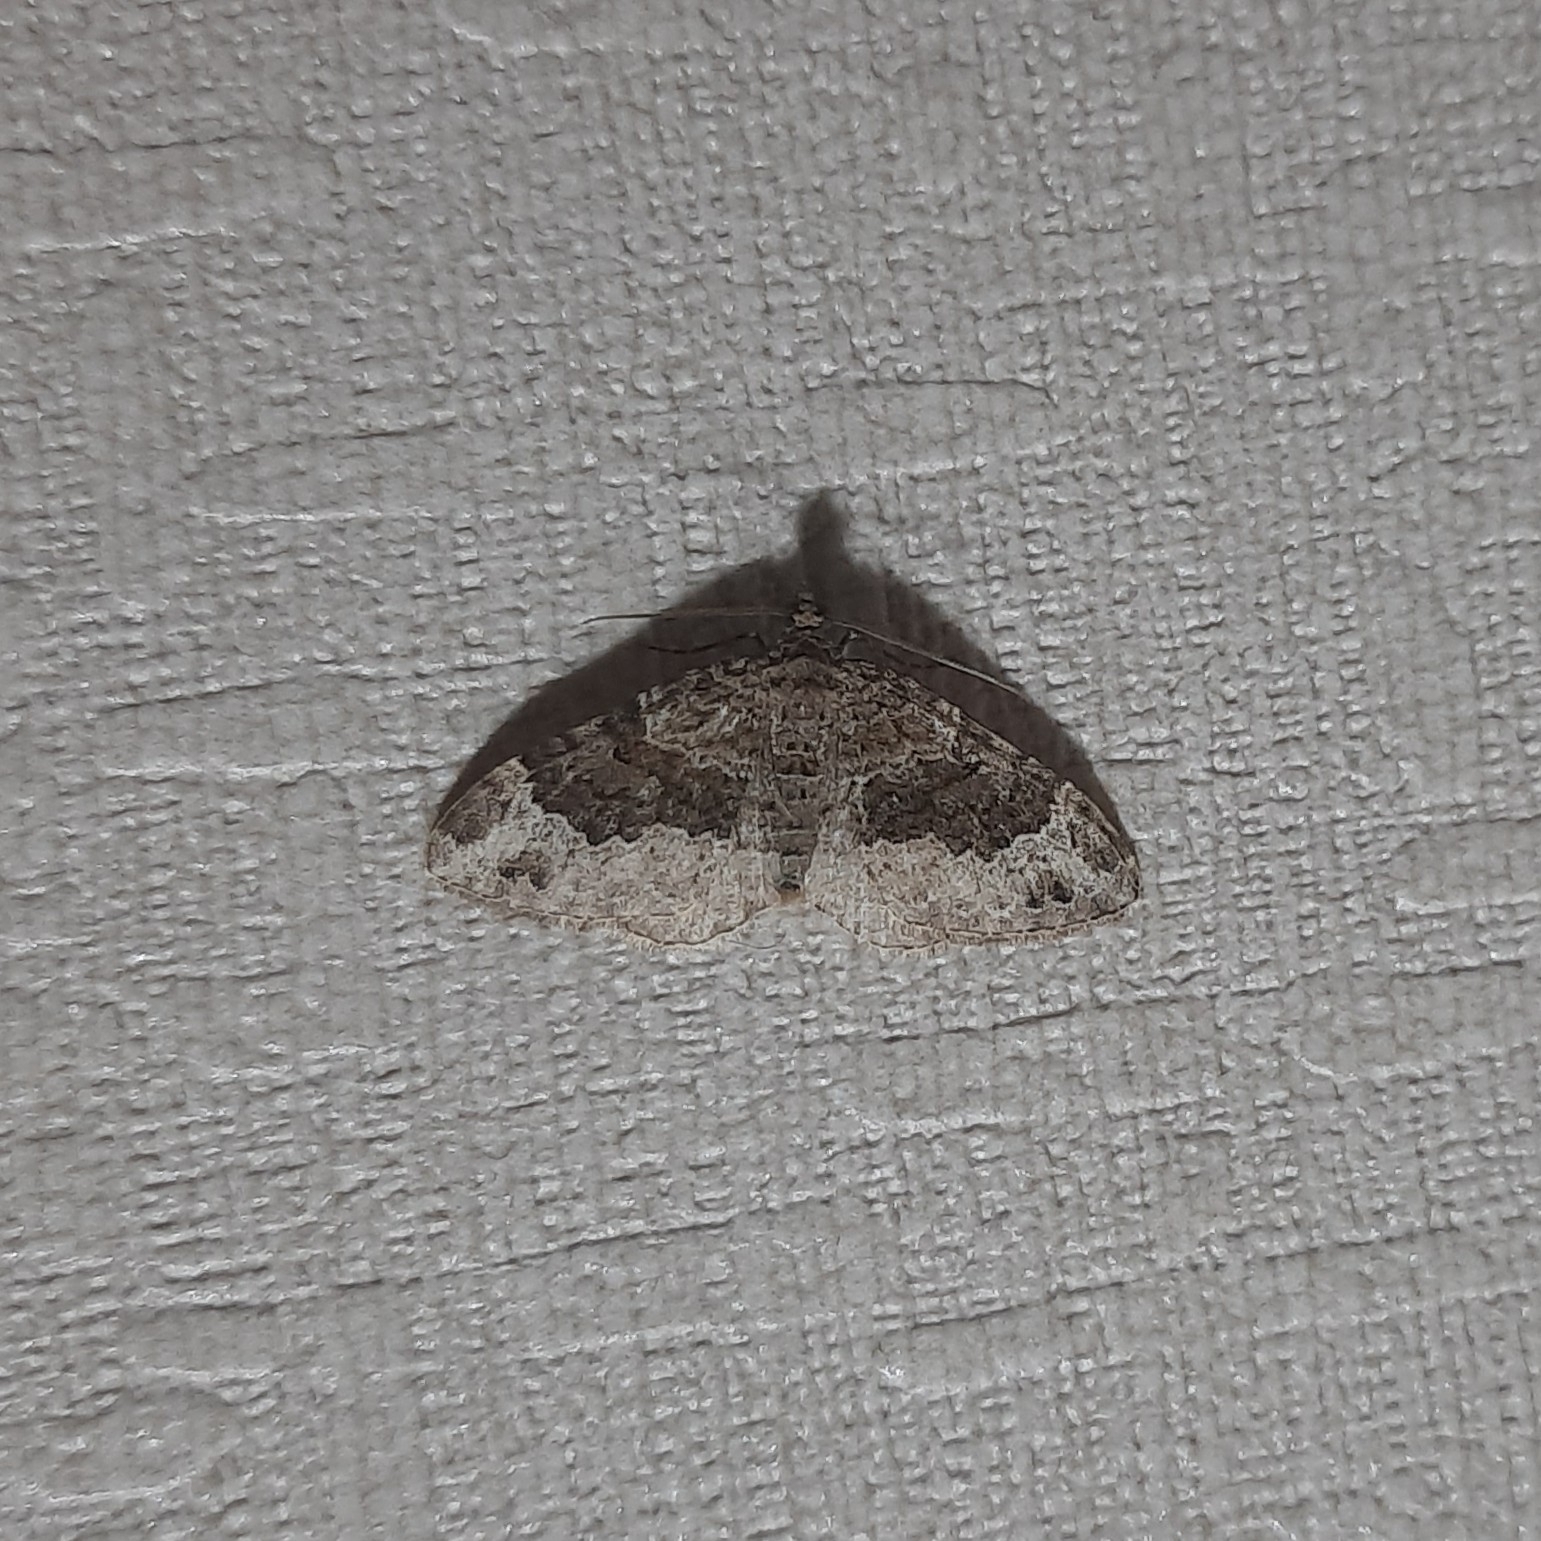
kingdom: Animalia
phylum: Arthropoda
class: Insecta
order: Lepidoptera
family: Geometridae
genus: Xanthorhoe
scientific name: Xanthorhoe saturata
